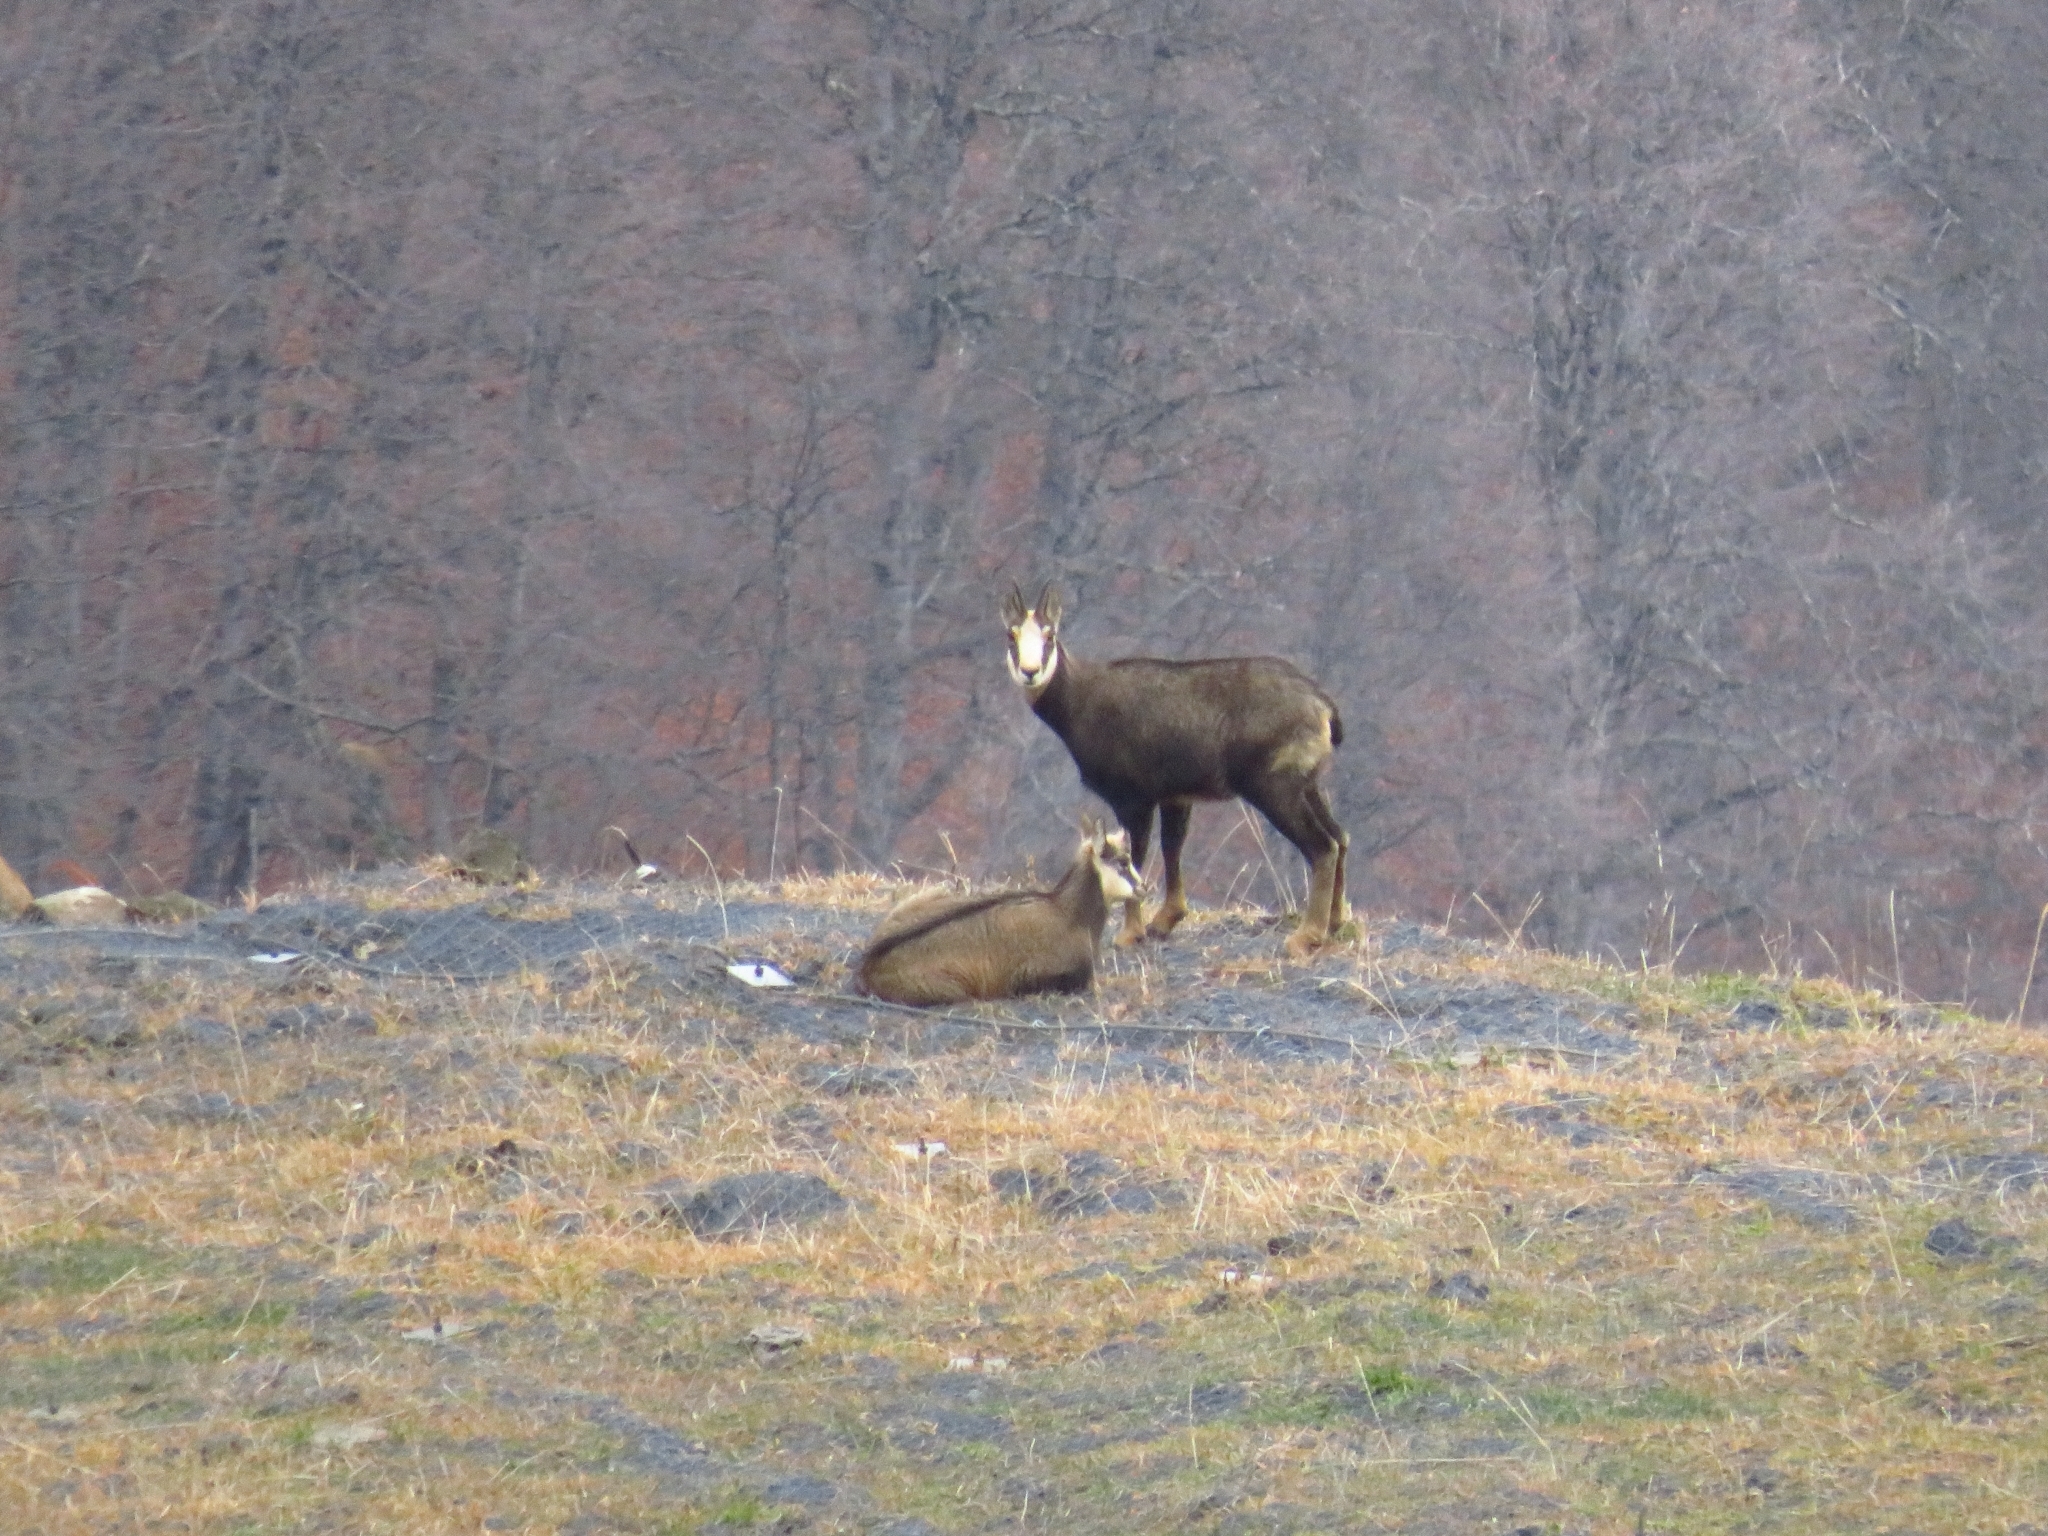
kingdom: Animalia
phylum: Chordata
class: Mammalia
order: Artiodactyla
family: Bovidae
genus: Rupicapra
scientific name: Rupicapra rupicapra
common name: Chamois
